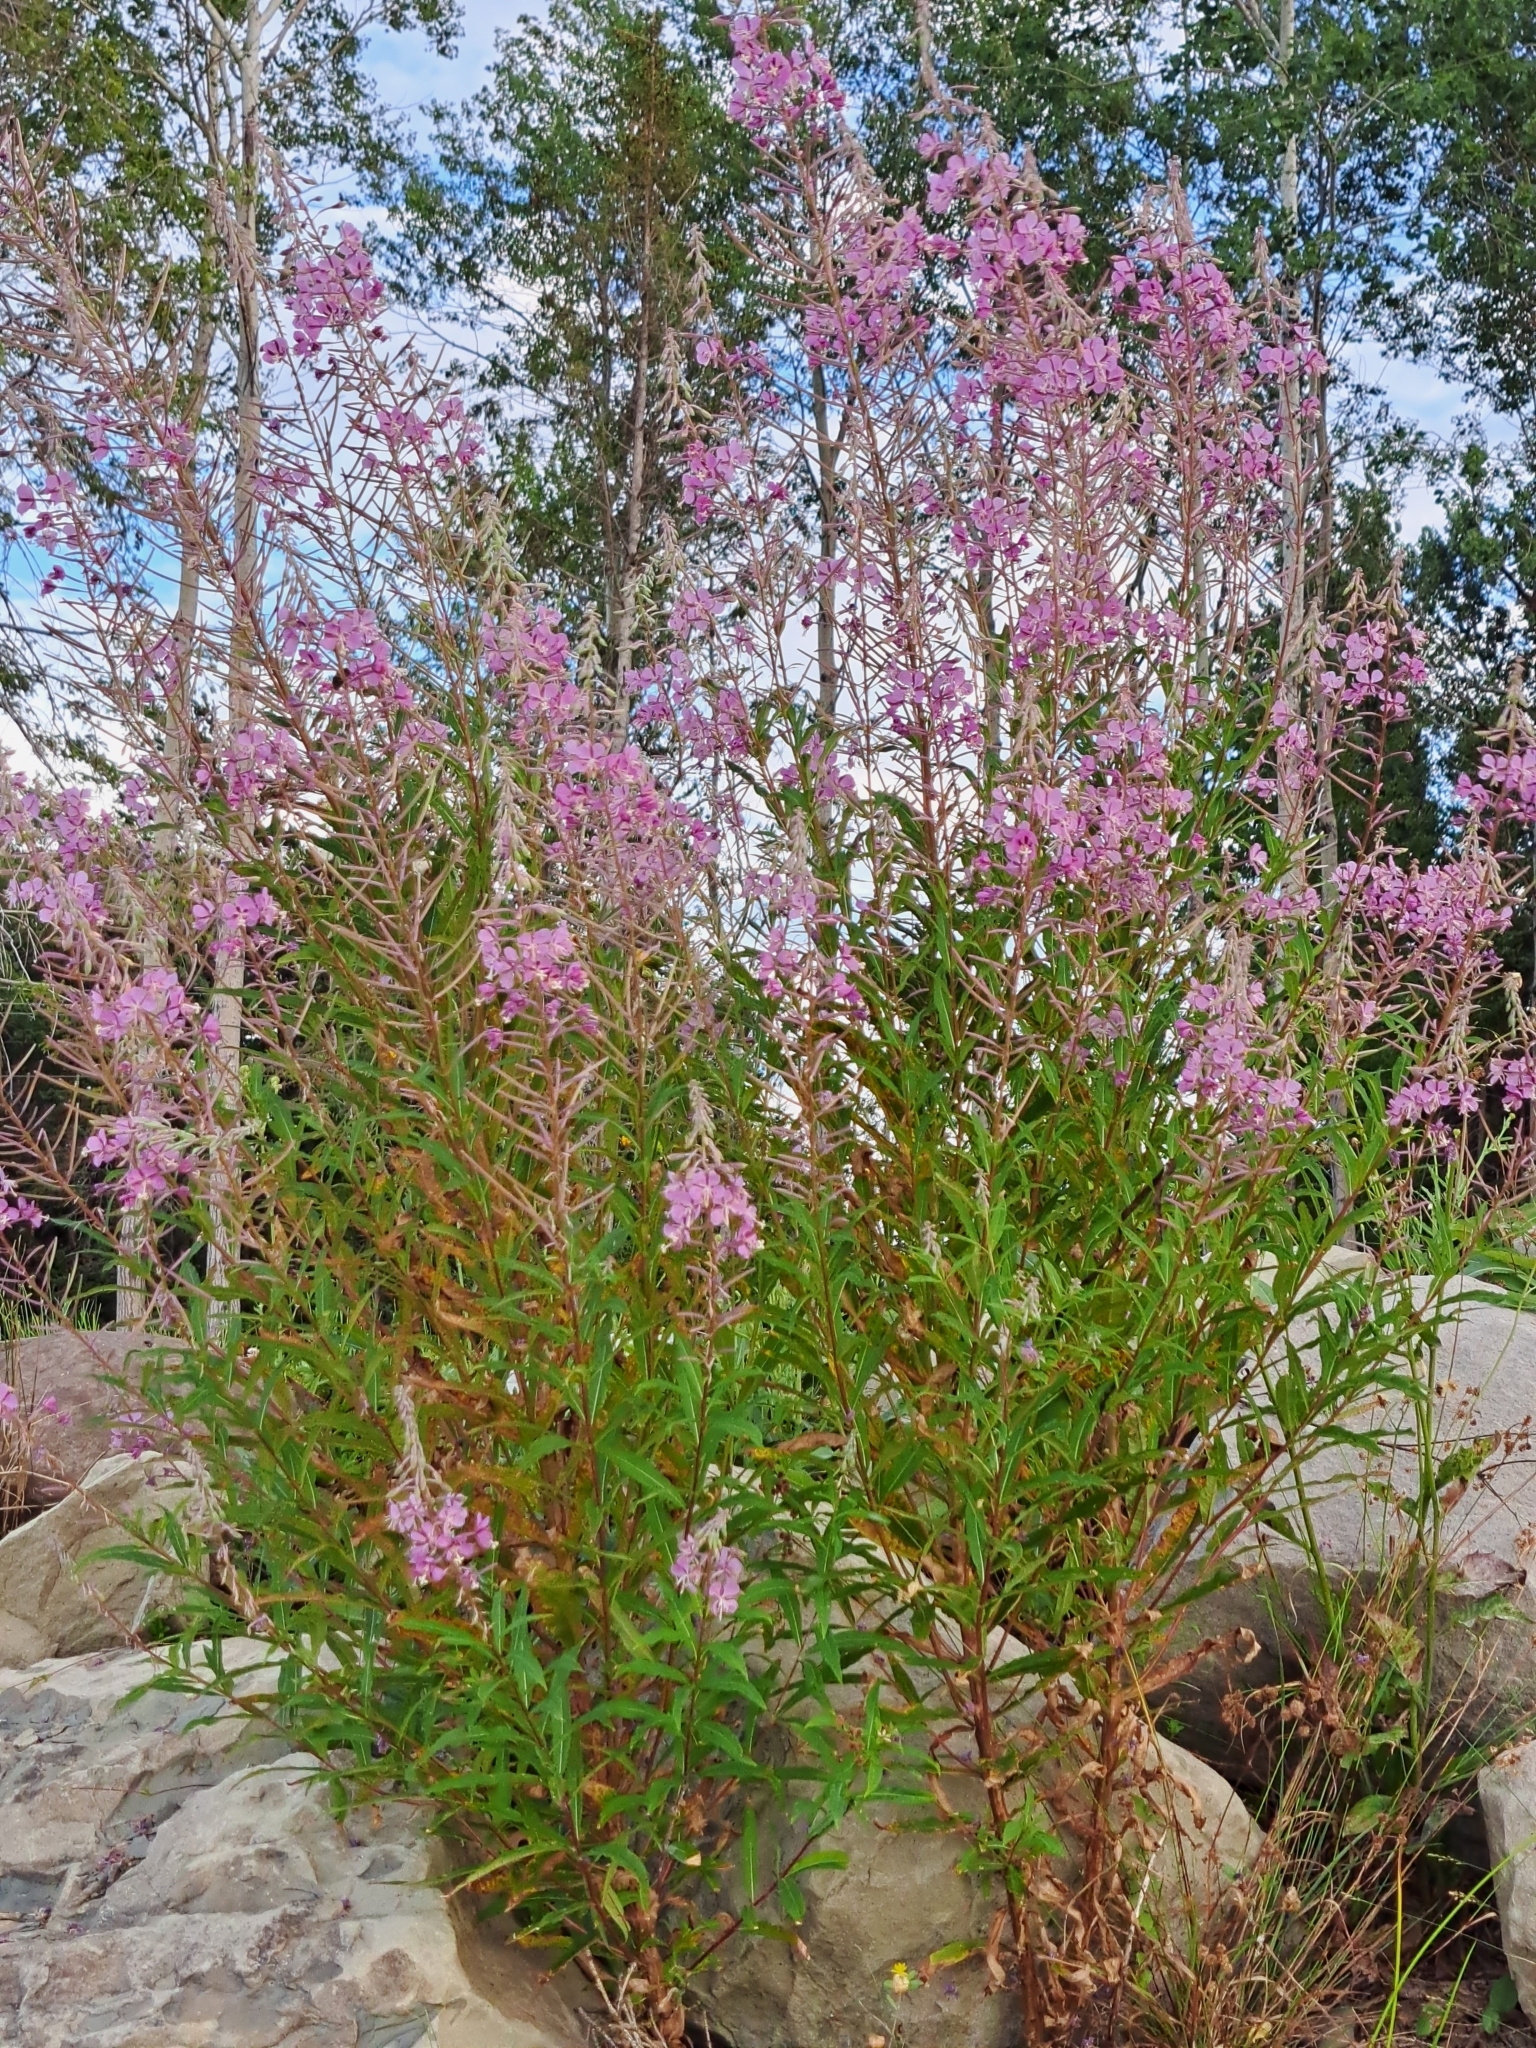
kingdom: Plantae
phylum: Tracheophyta
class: Magnoliopsida
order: Myrtales
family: Onagraceae
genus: Chamaenerion
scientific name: Chamaenerion angustifolium
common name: Fireweed
